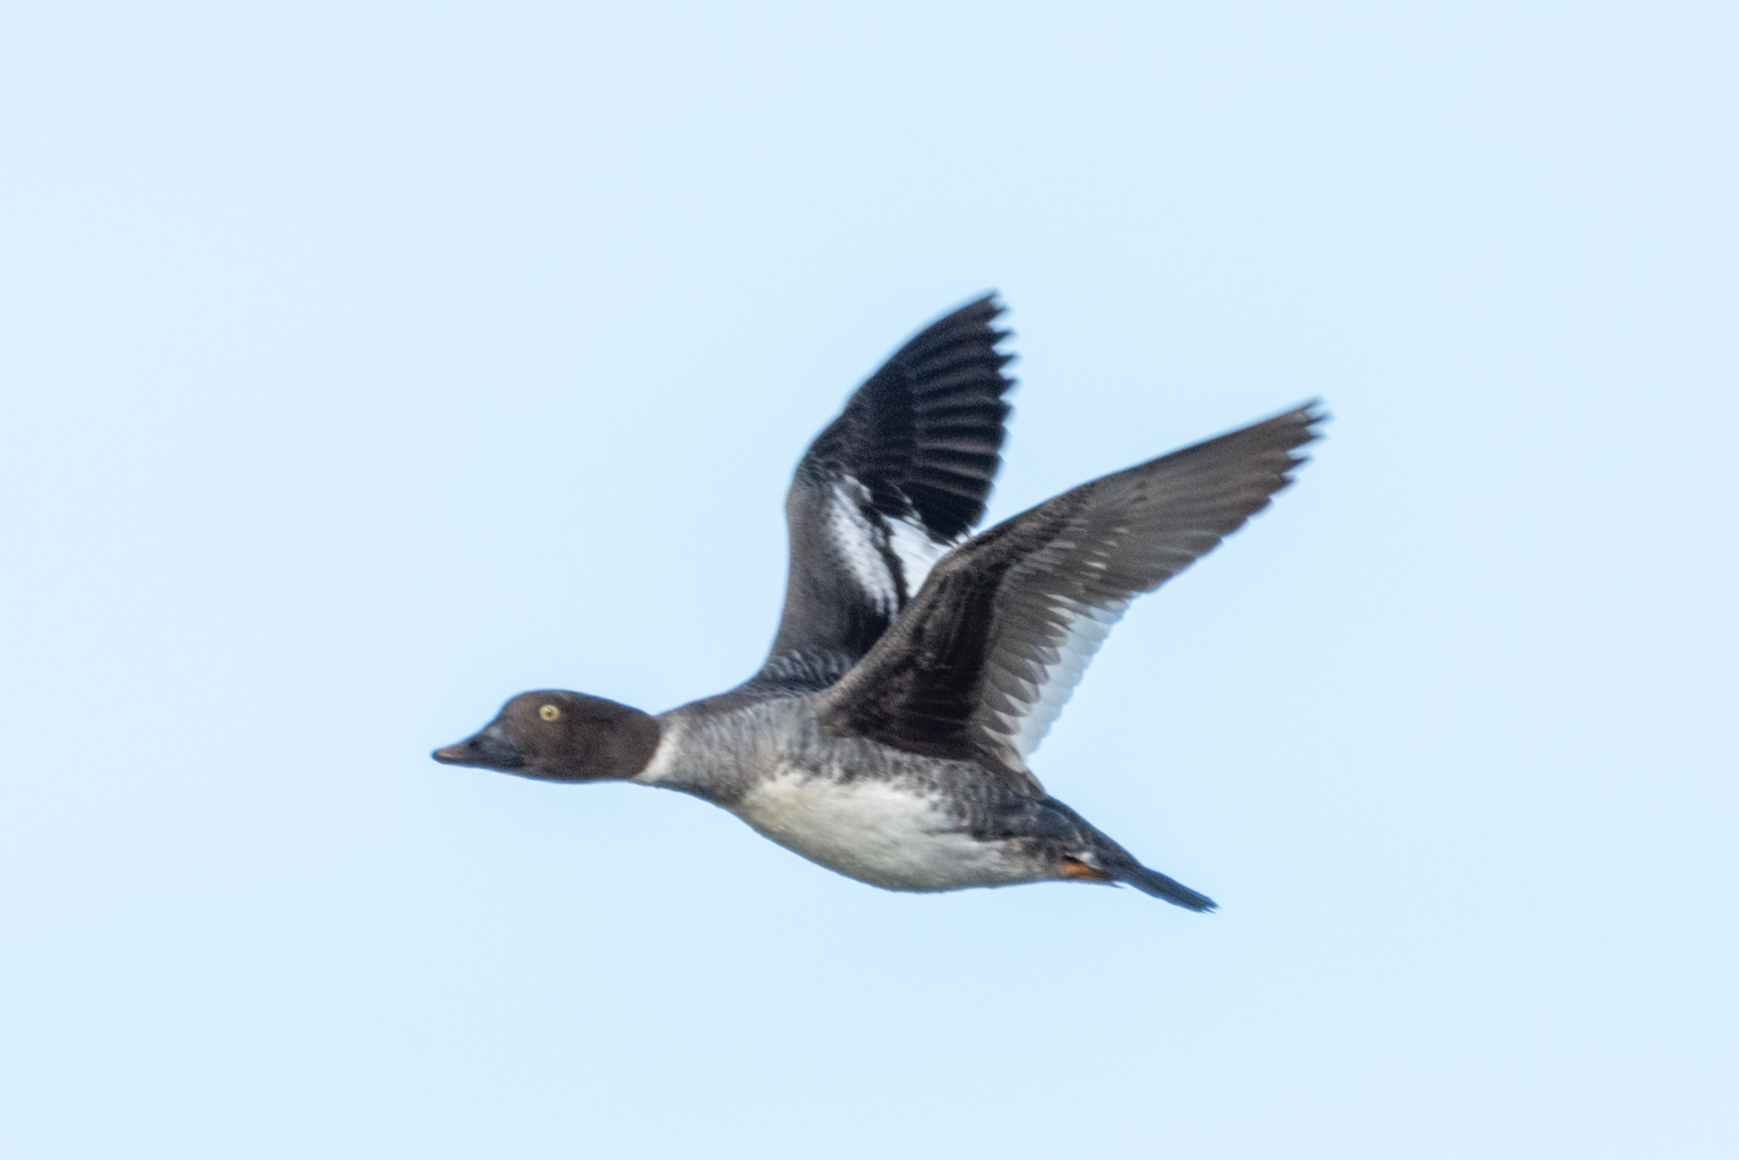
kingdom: Animalia
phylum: Chordata
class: Aves
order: Anseriformes
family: Anatidae
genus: Bucephala
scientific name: Bucephala clangula
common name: Common goldeneye
